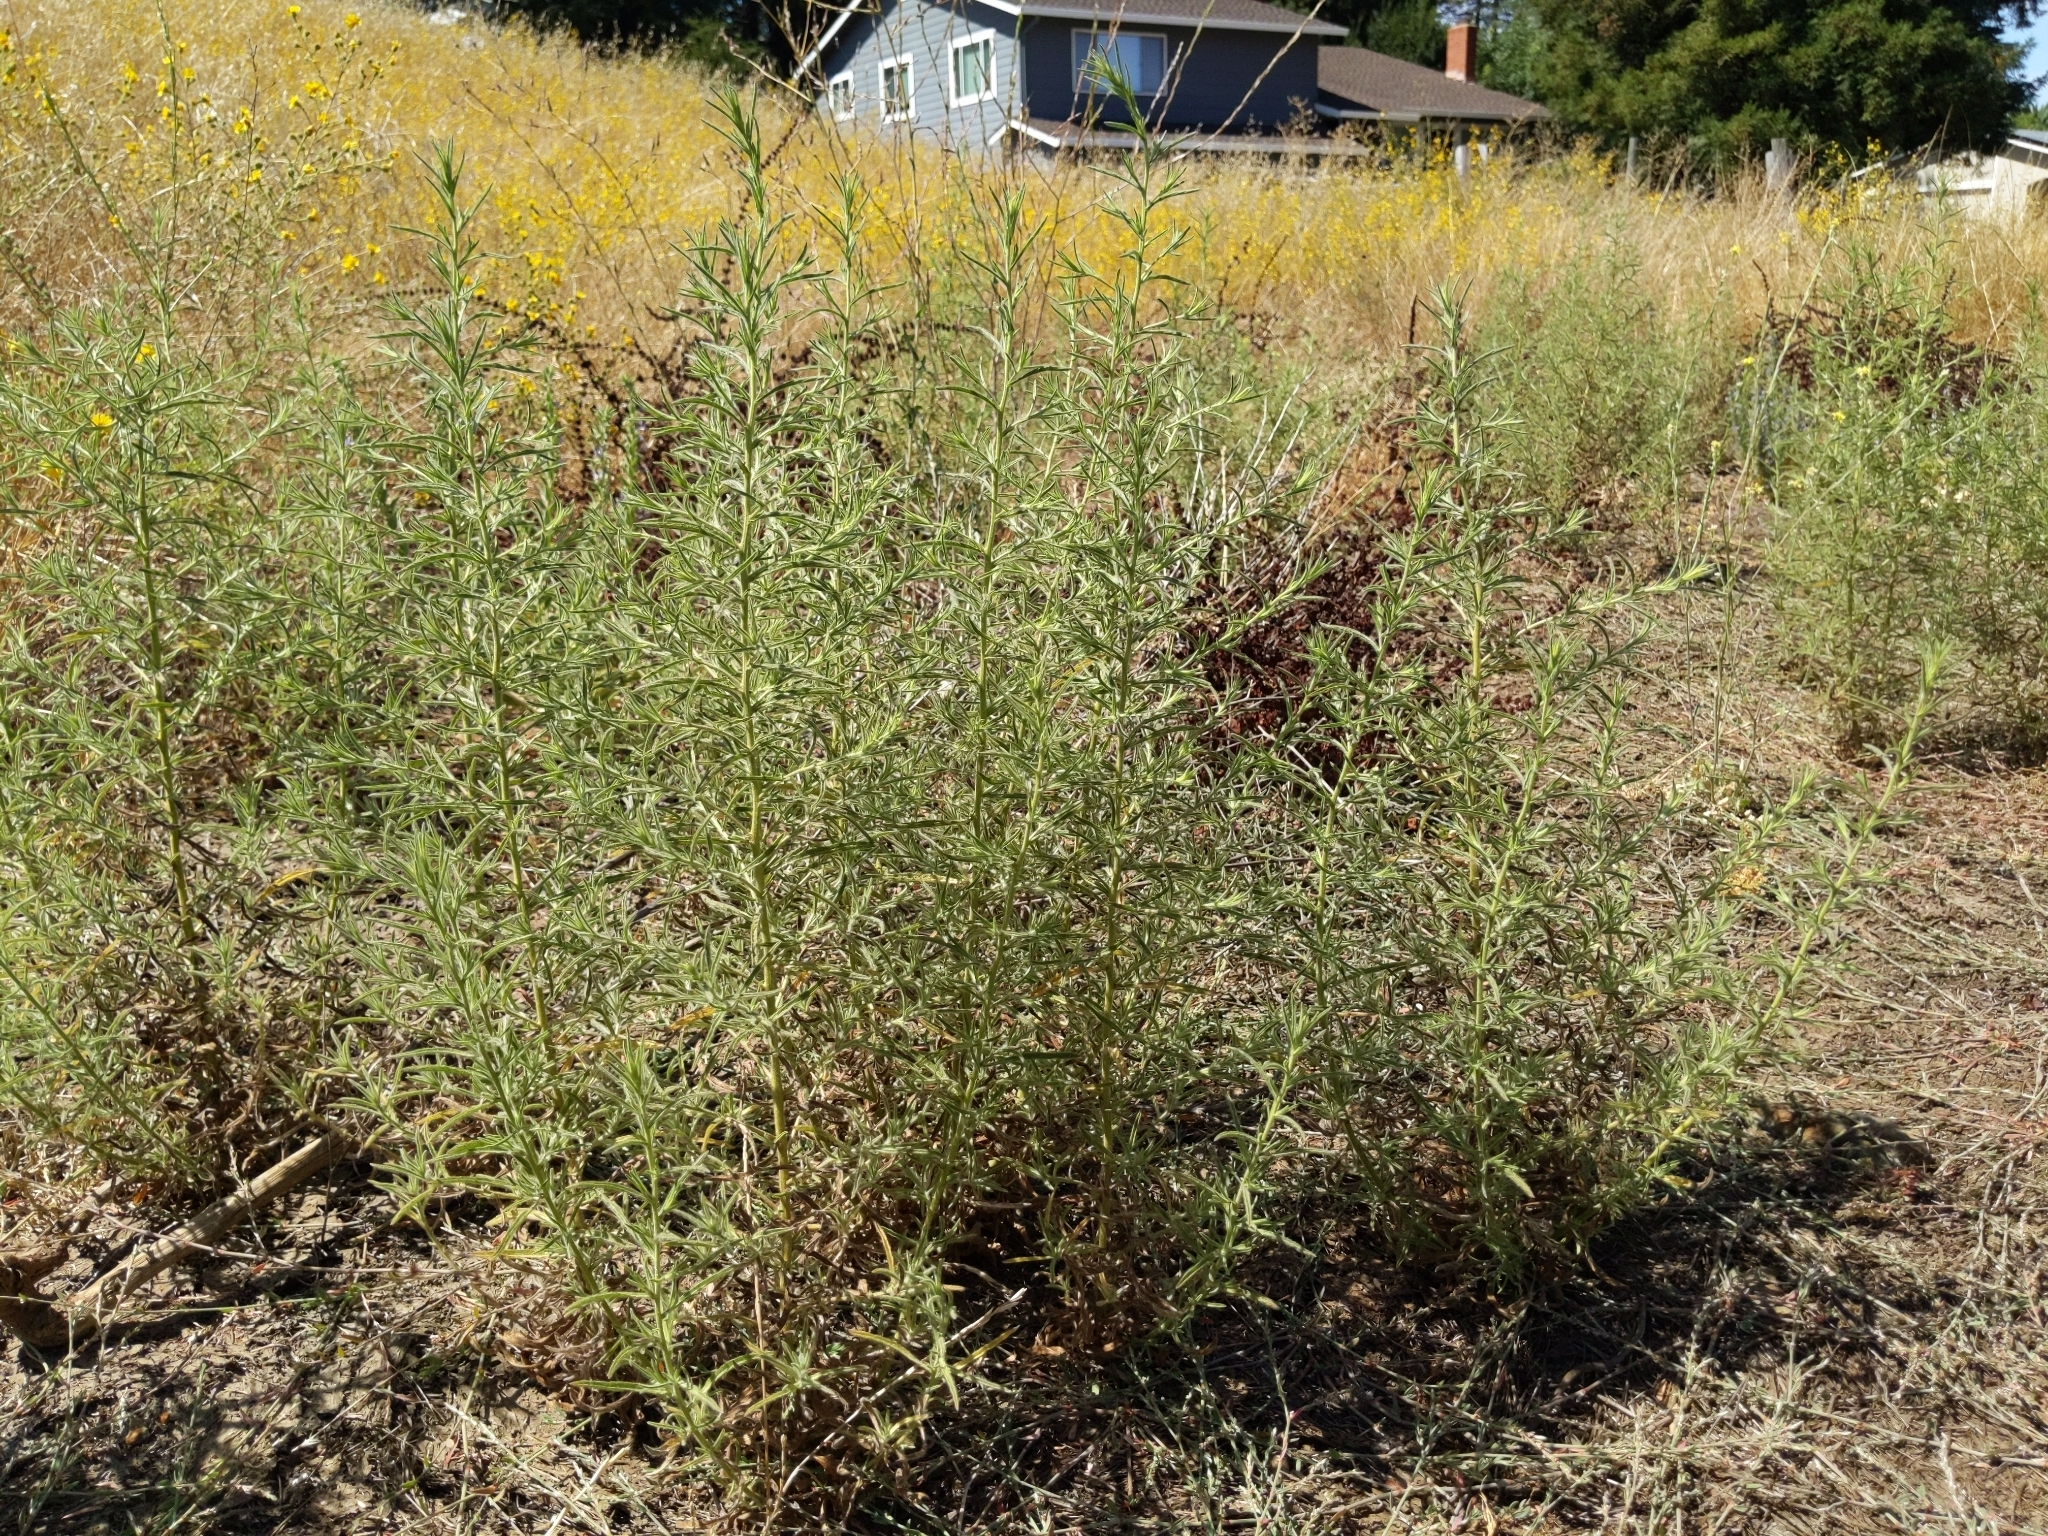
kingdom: Plantae
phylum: Tracheophyta
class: Magnoliopsida
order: Asterales
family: Asteraceae
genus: Dittrichia
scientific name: Dittrichia graveolens
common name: Stinking fleabane
